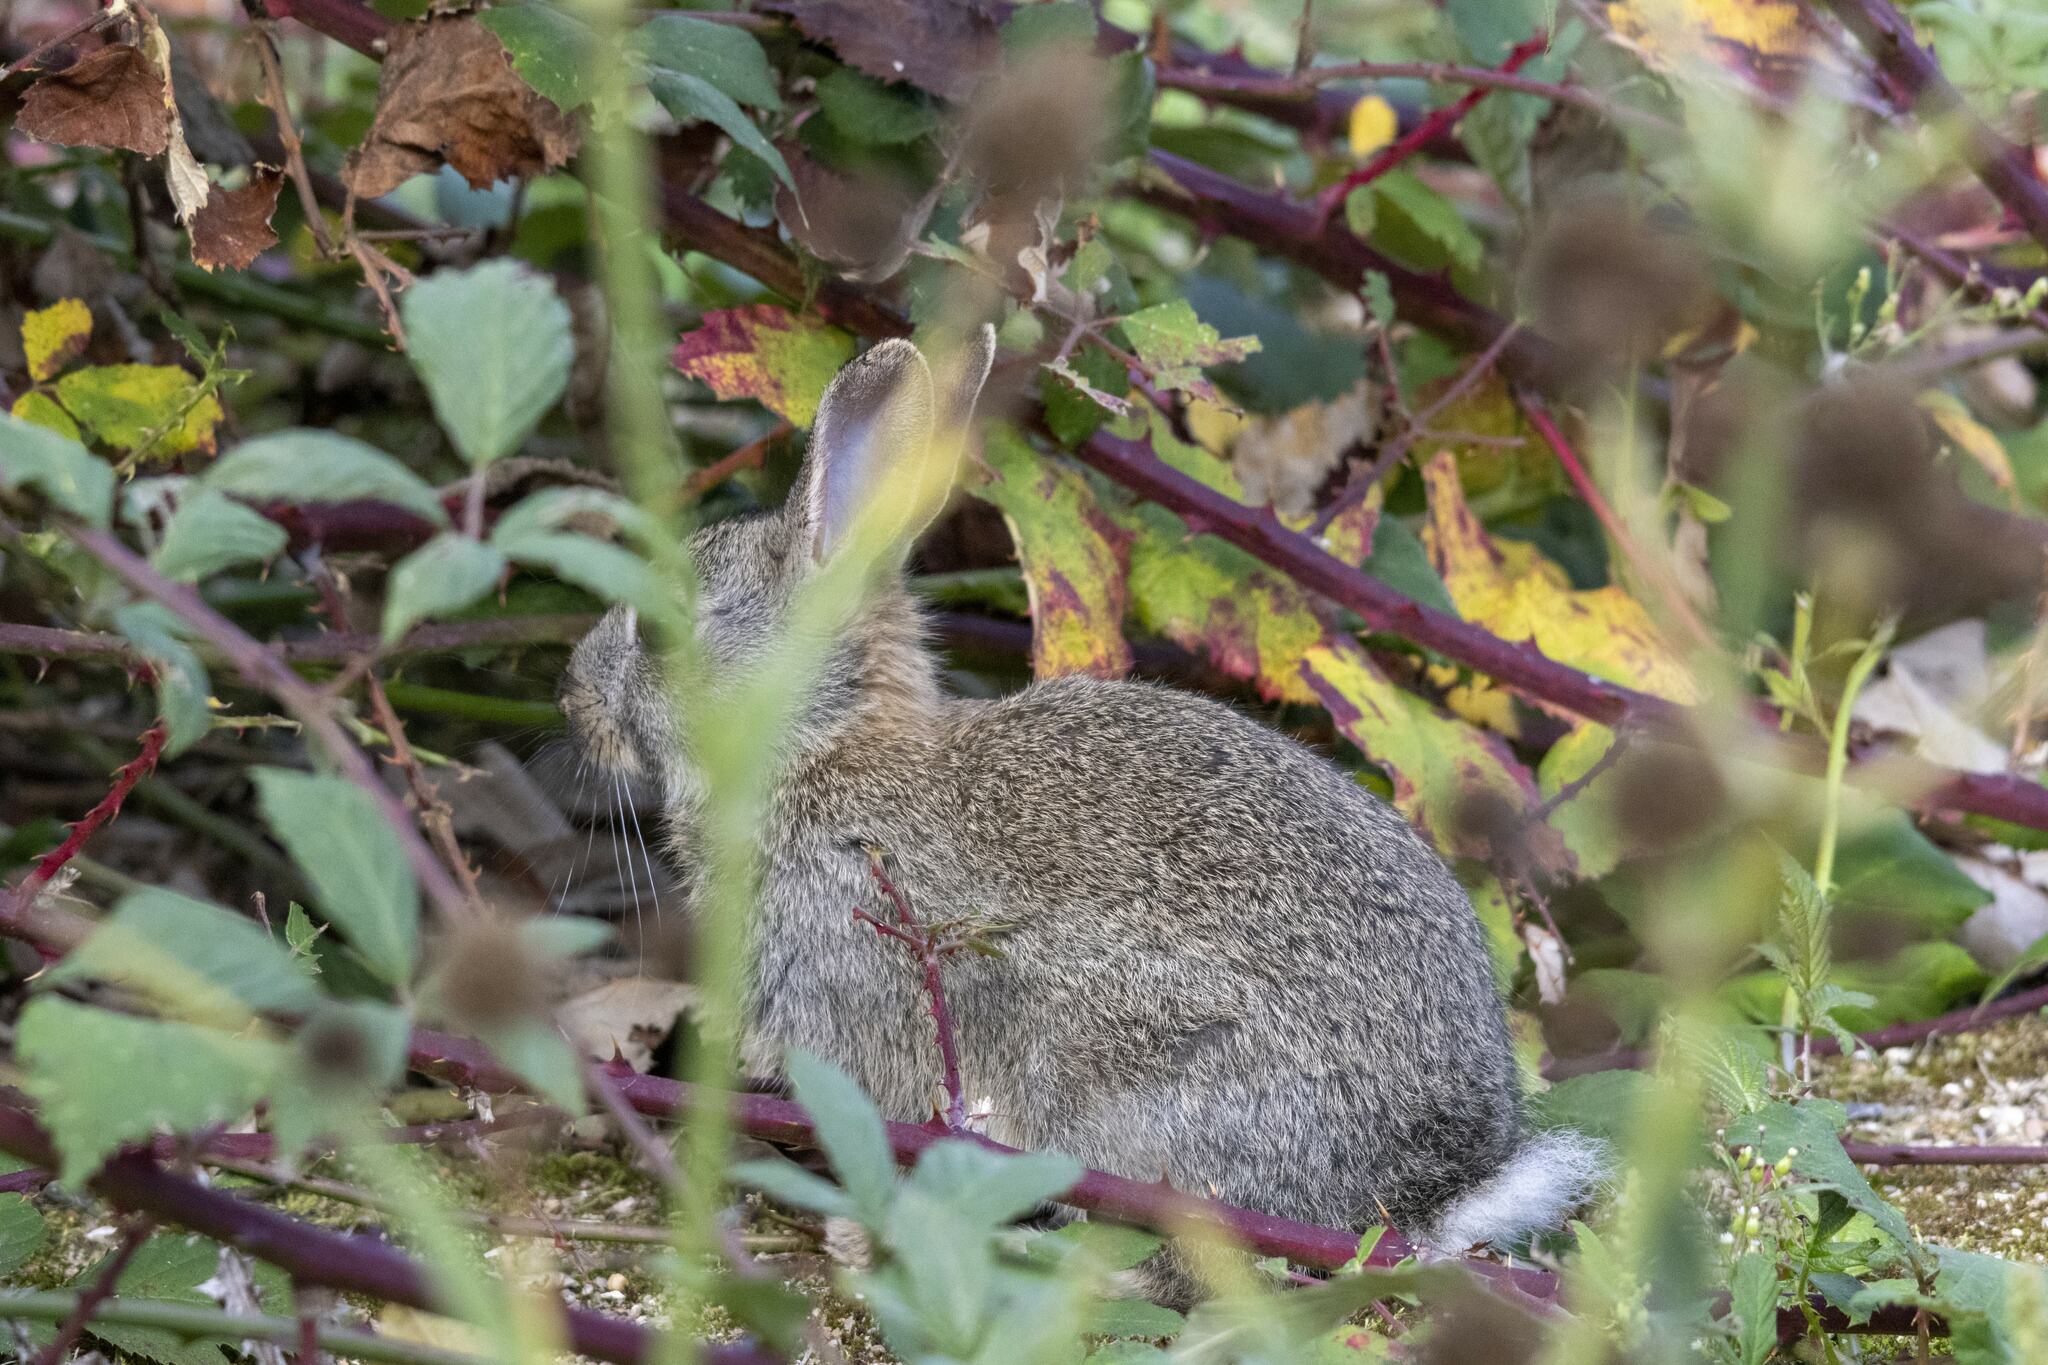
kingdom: Animalia
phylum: Chordata
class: Mammalia
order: Lagomorpha
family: Leporidae
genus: Oryctolagus
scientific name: Oryctolagus cuniculus
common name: European rabbit
